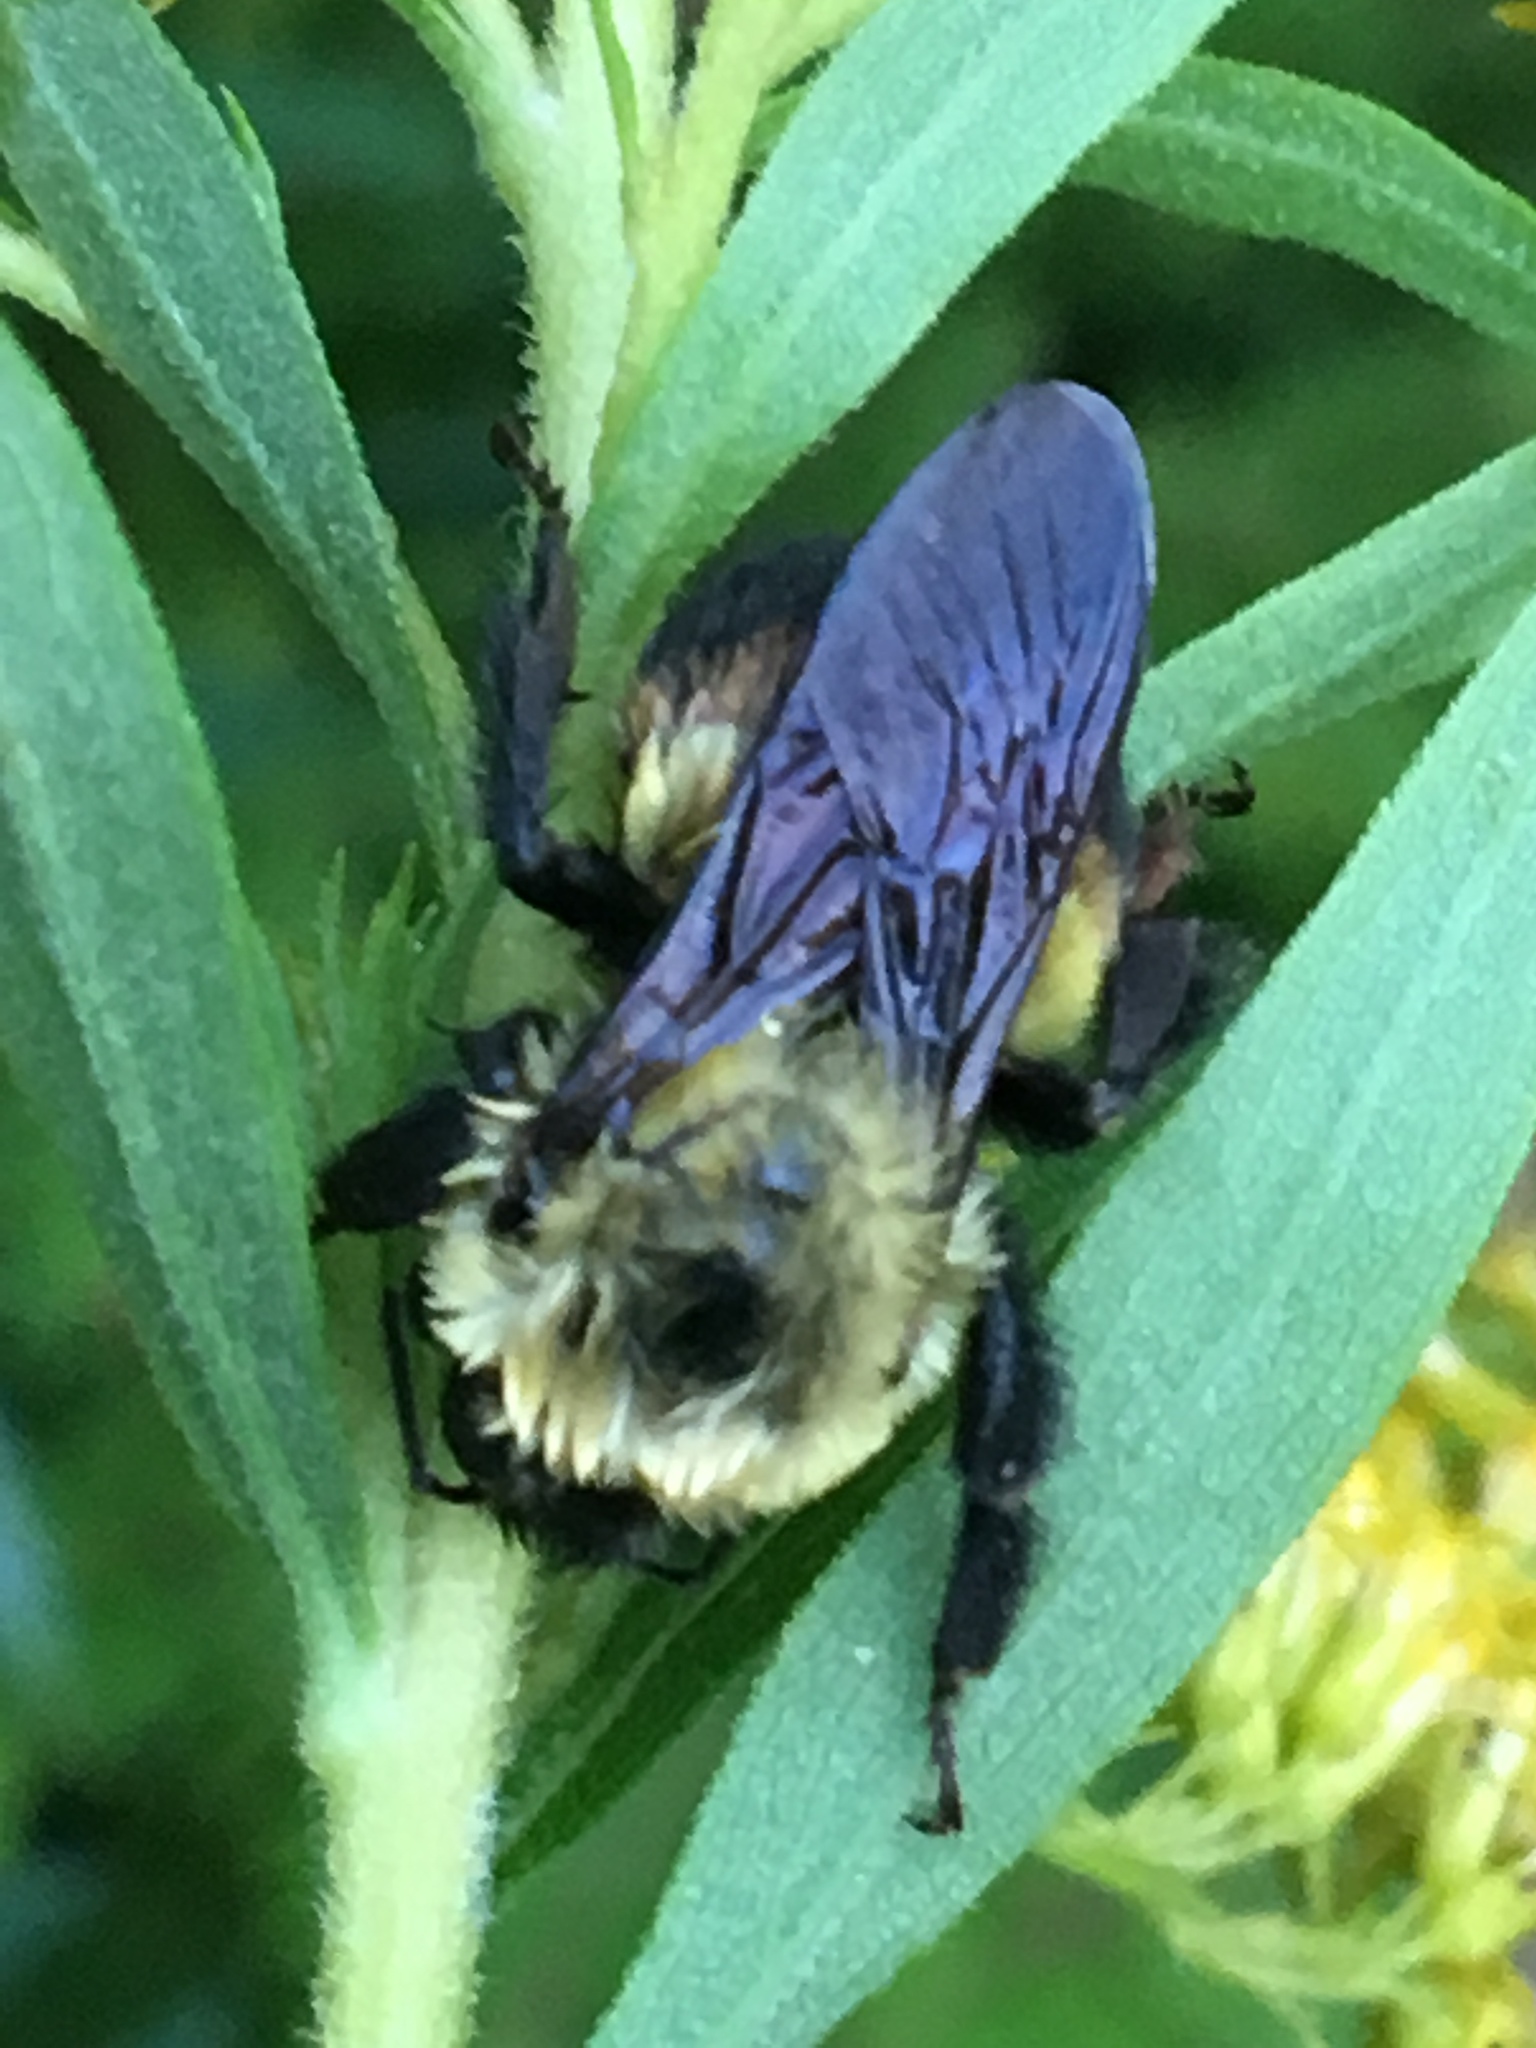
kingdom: Animalia
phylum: Arthropoda
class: Insecta
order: Hymenoptera
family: Apidae
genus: Bombus
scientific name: Bombus griseocollis
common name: Brown-belted bumble bee
